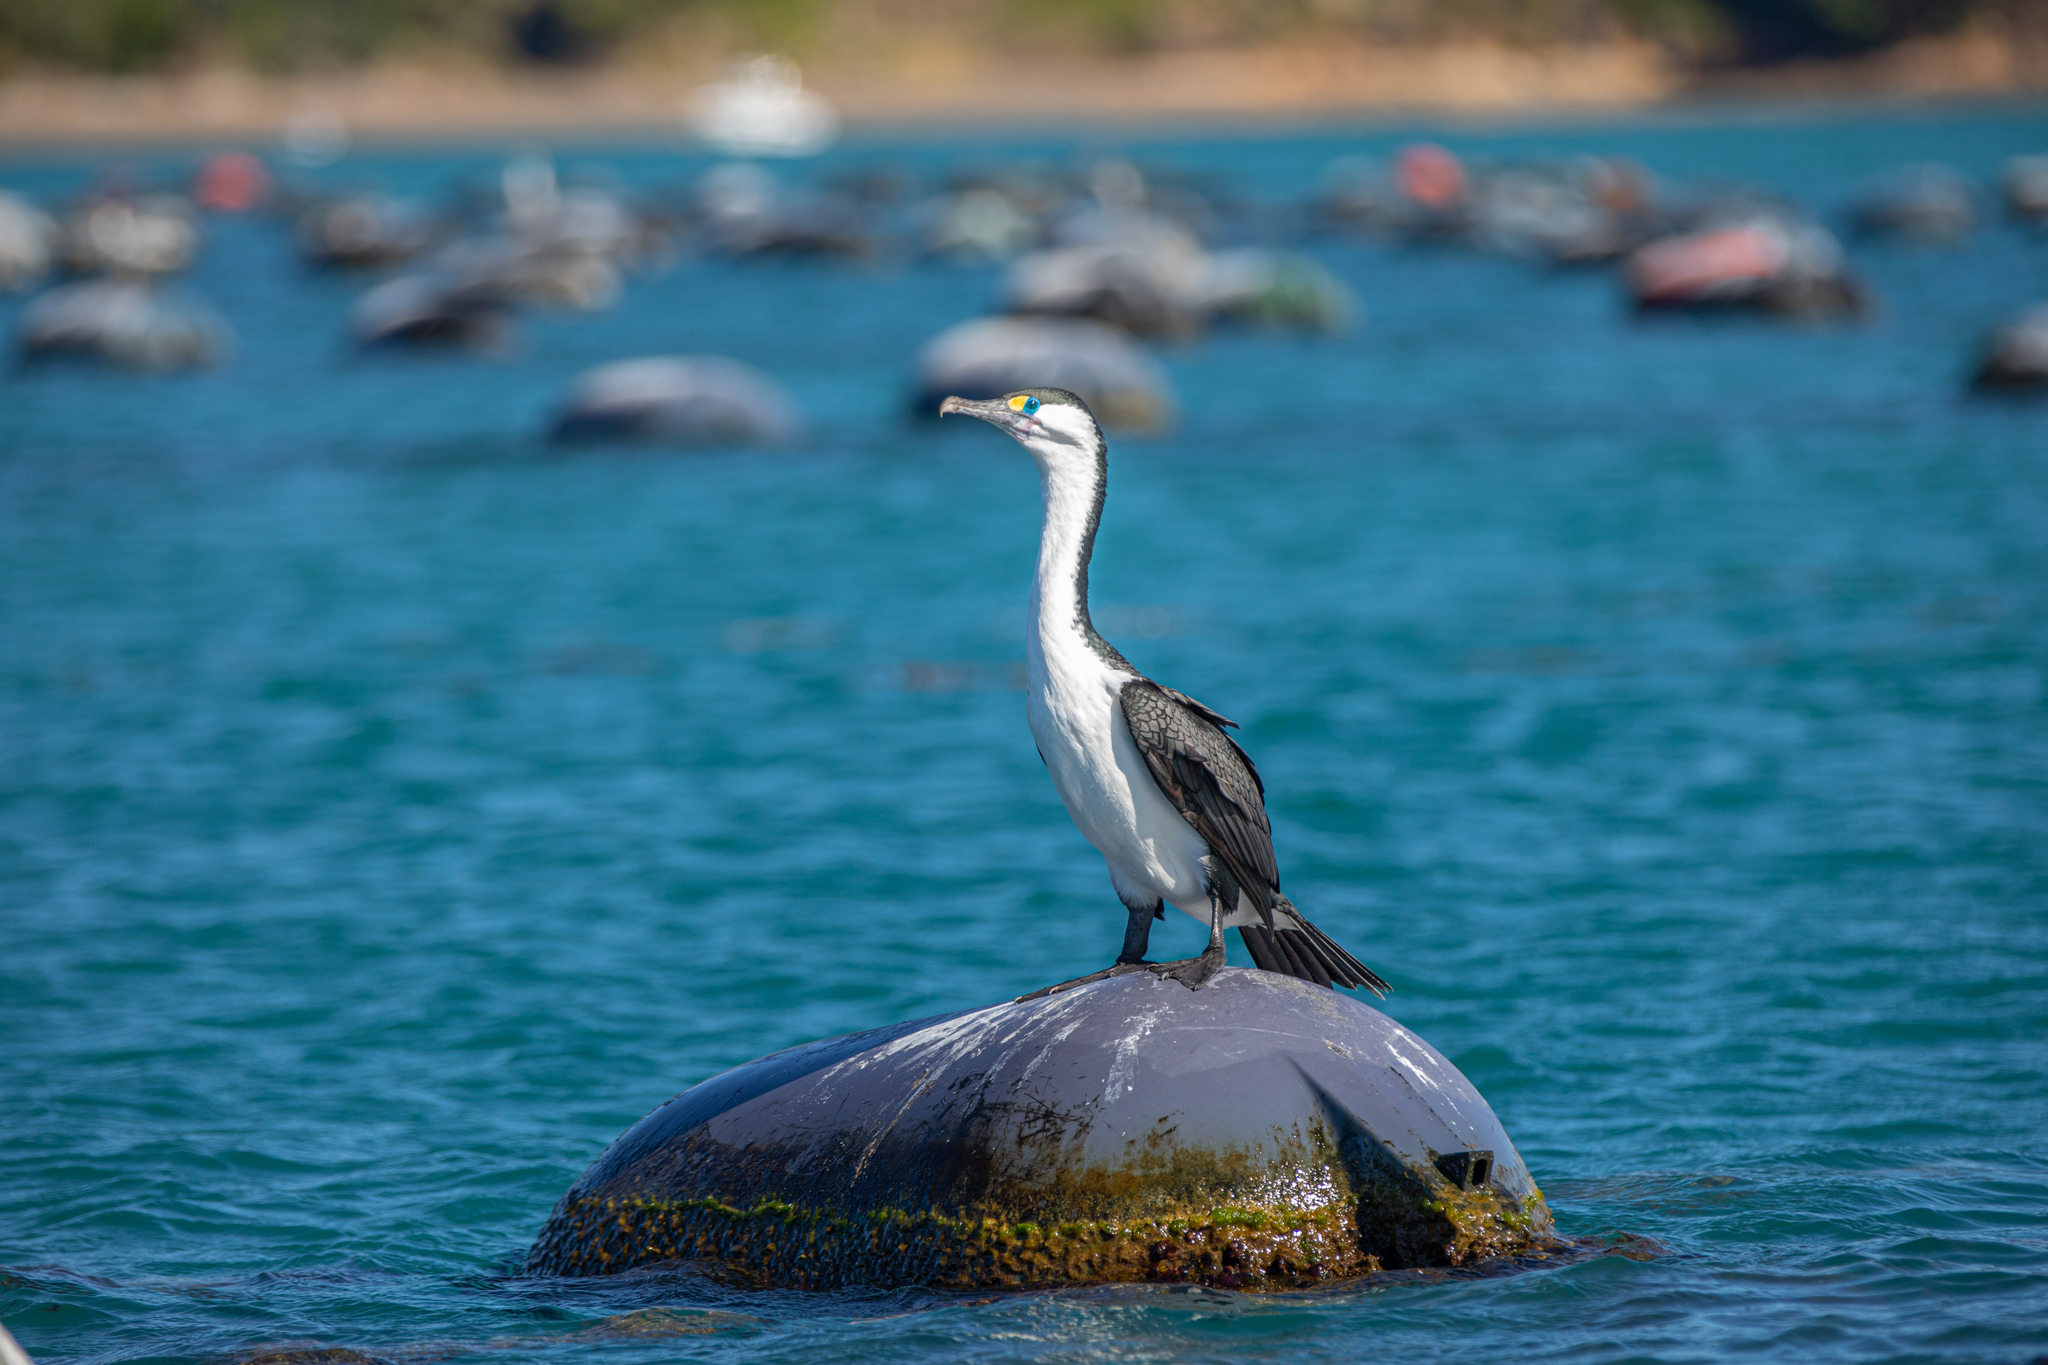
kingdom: Animalia
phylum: Chordata
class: Aves
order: Suliformes
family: Phalacrocoracidae
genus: Phalacrocorax
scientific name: Phalacrocorax varius
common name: Pied cormorant
